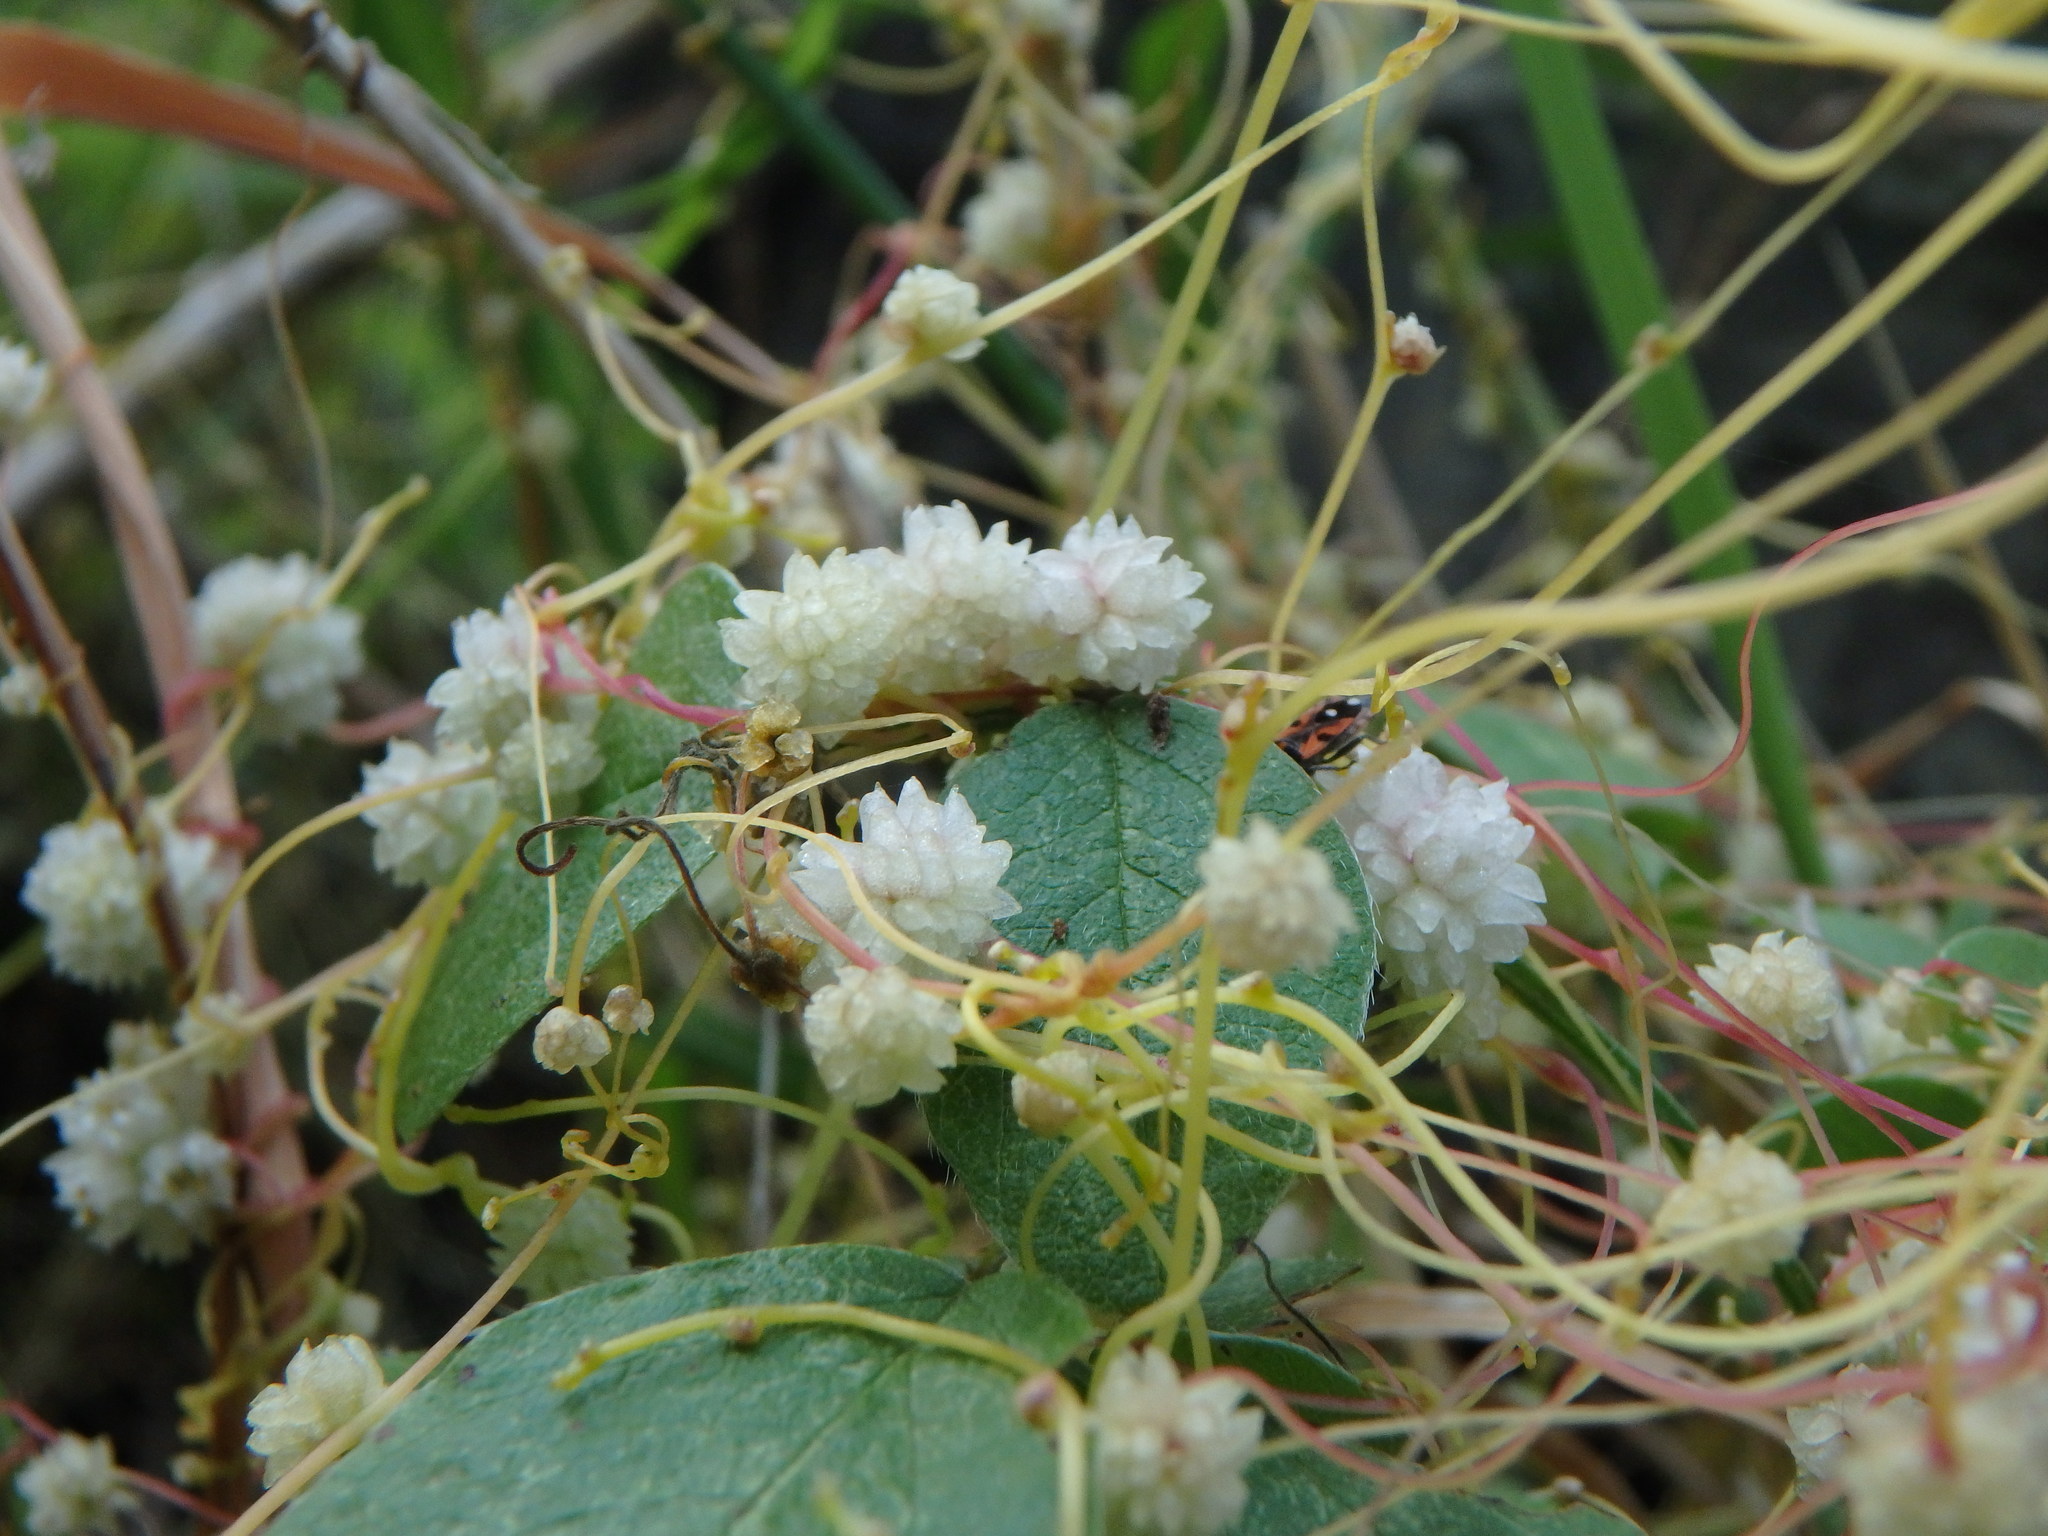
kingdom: Plantae
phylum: Tracheophyta
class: Magnoliopsida
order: Solanales
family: Convolvulaceae
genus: Cuscuta
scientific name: Cuscuta planiflora
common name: Small-seed alfalfa dodder
